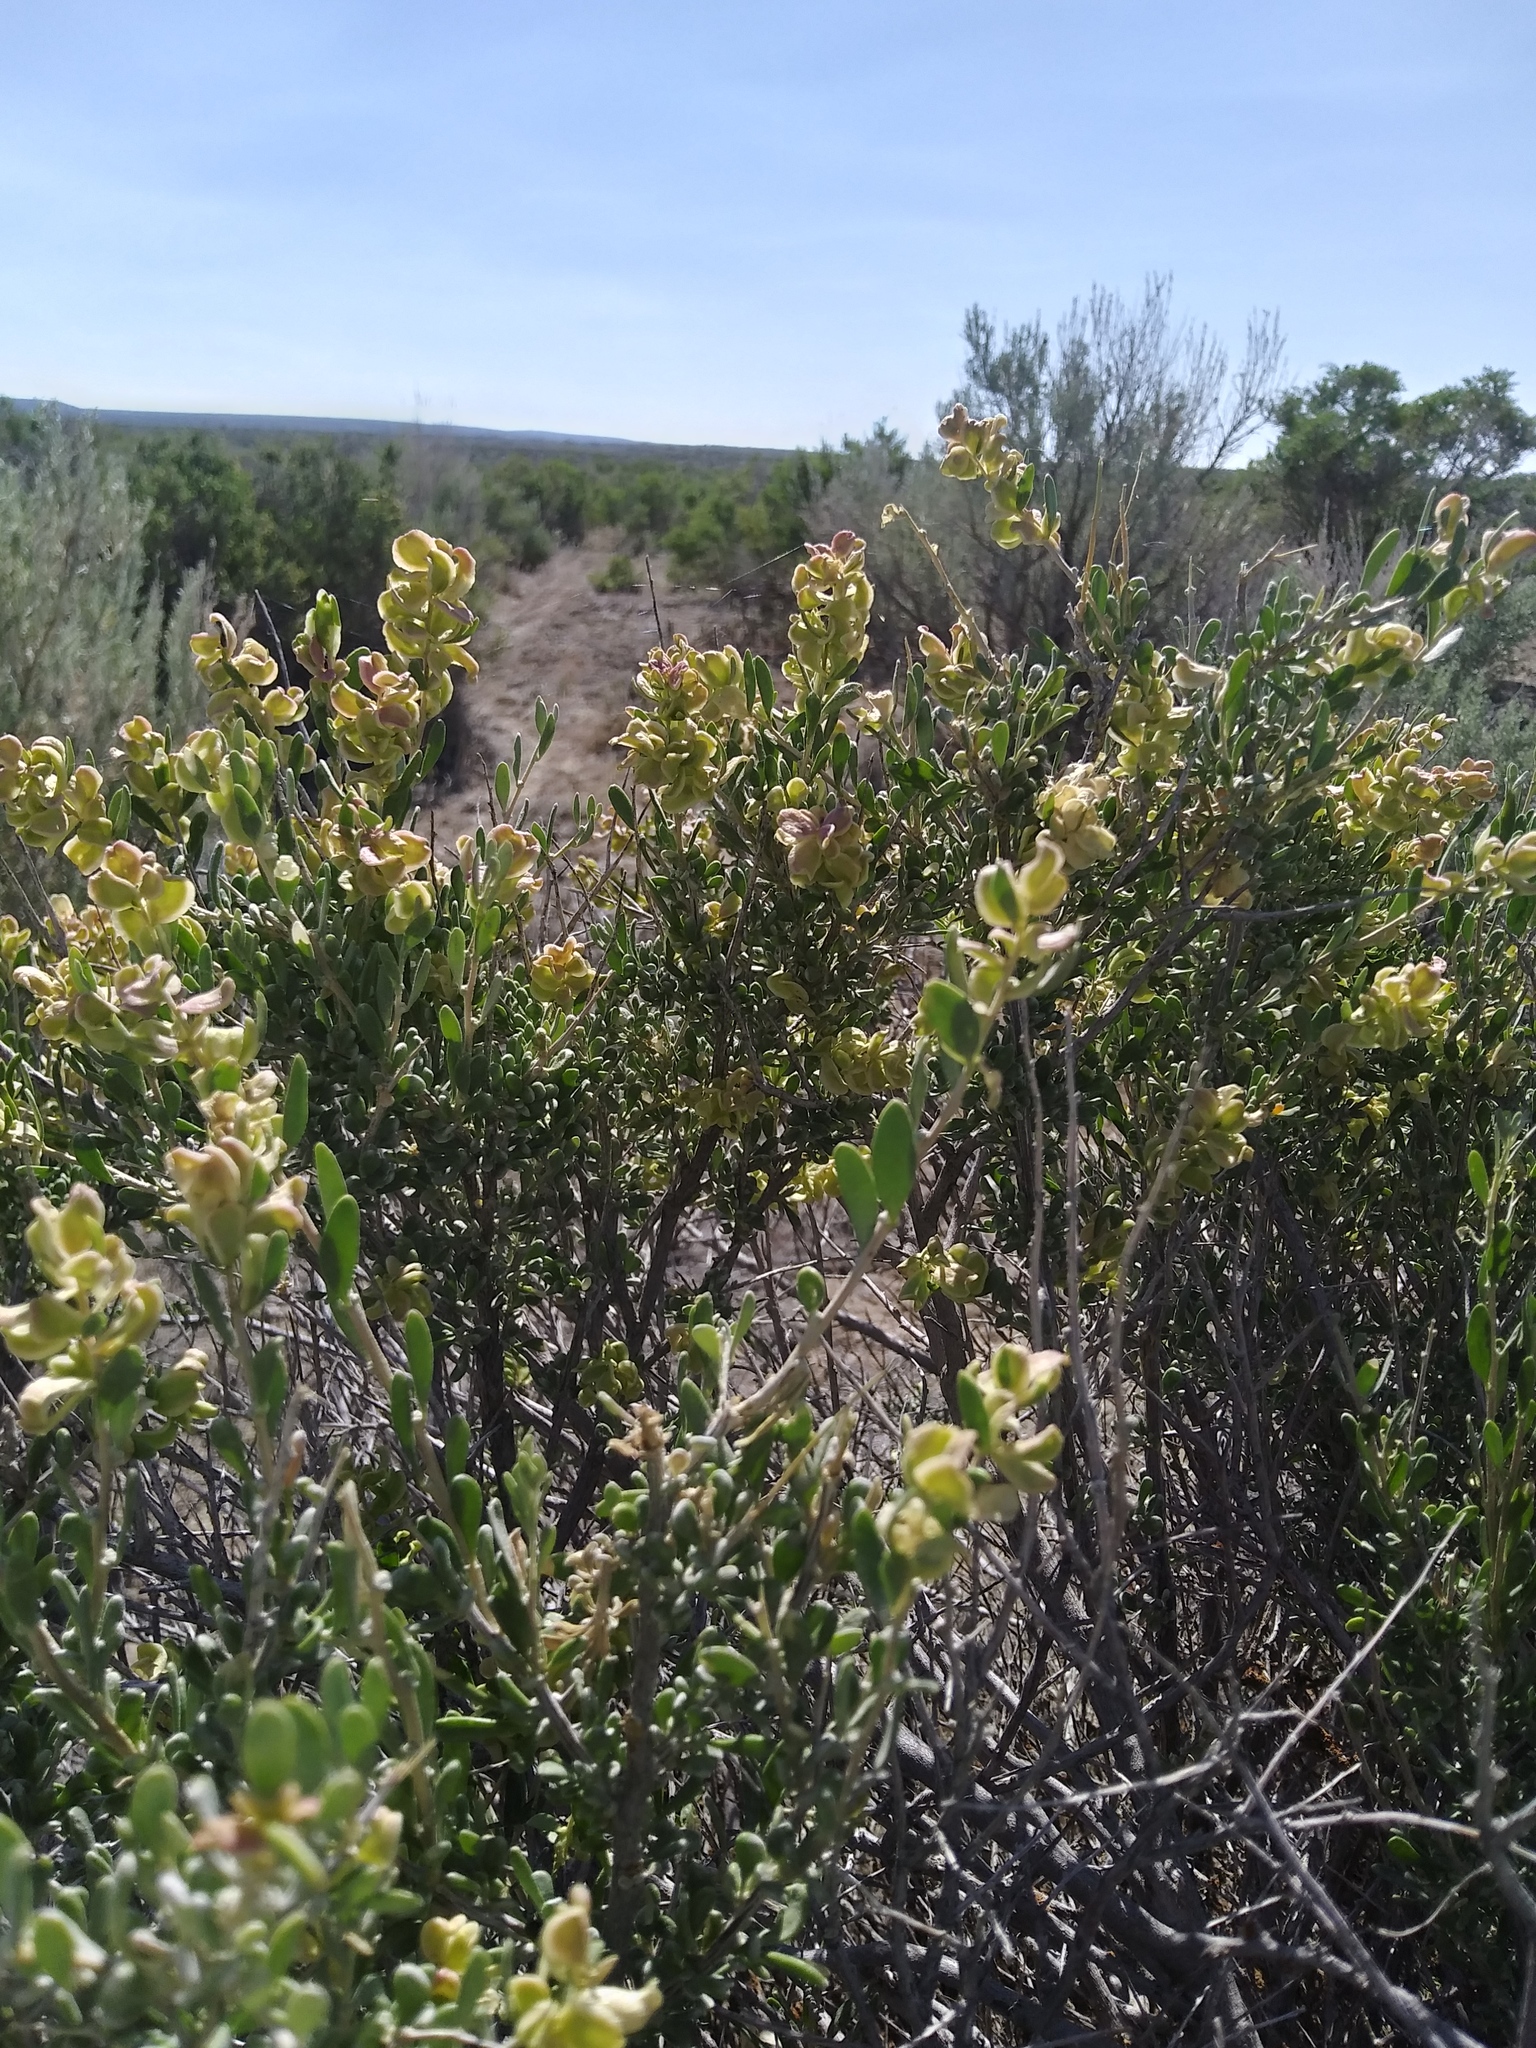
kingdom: Plantae
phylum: Tracheophyta
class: Magnoliopsida
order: Caryophyllales
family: Amaranthaceae
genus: Grayia
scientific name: Grayia spinosa
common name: Spiny hopsage
